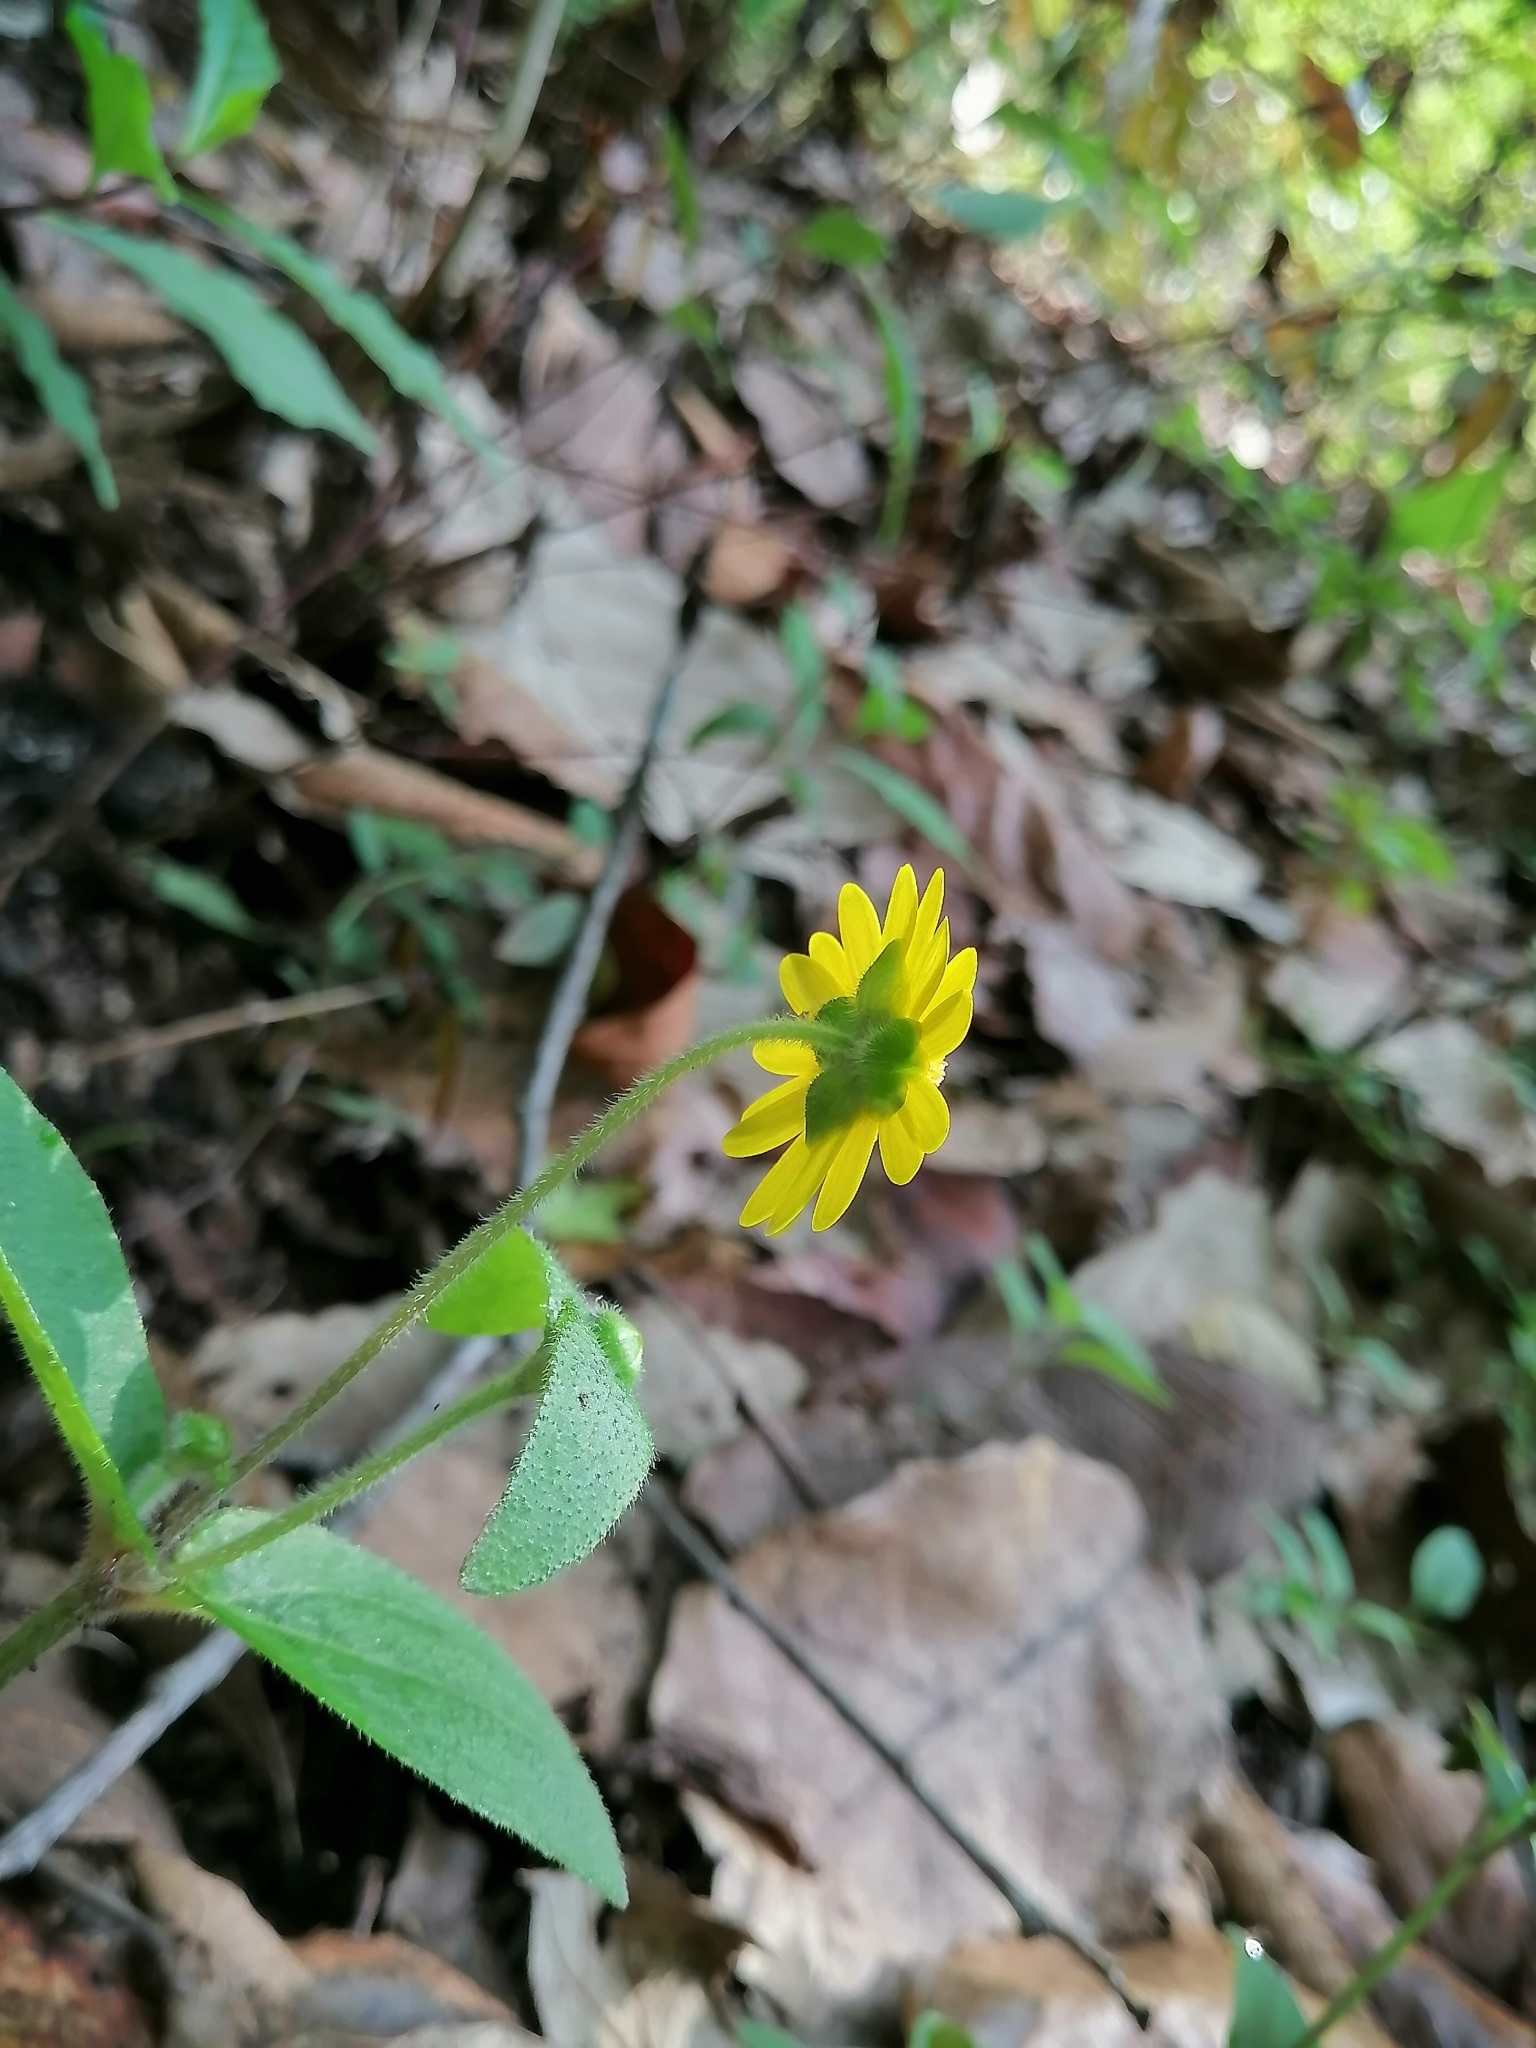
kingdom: Plantae
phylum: Tracheophyta
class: Magnoliopsida
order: Asterales
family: Asteraceae
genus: Melampodium
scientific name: Melampodium montanum
